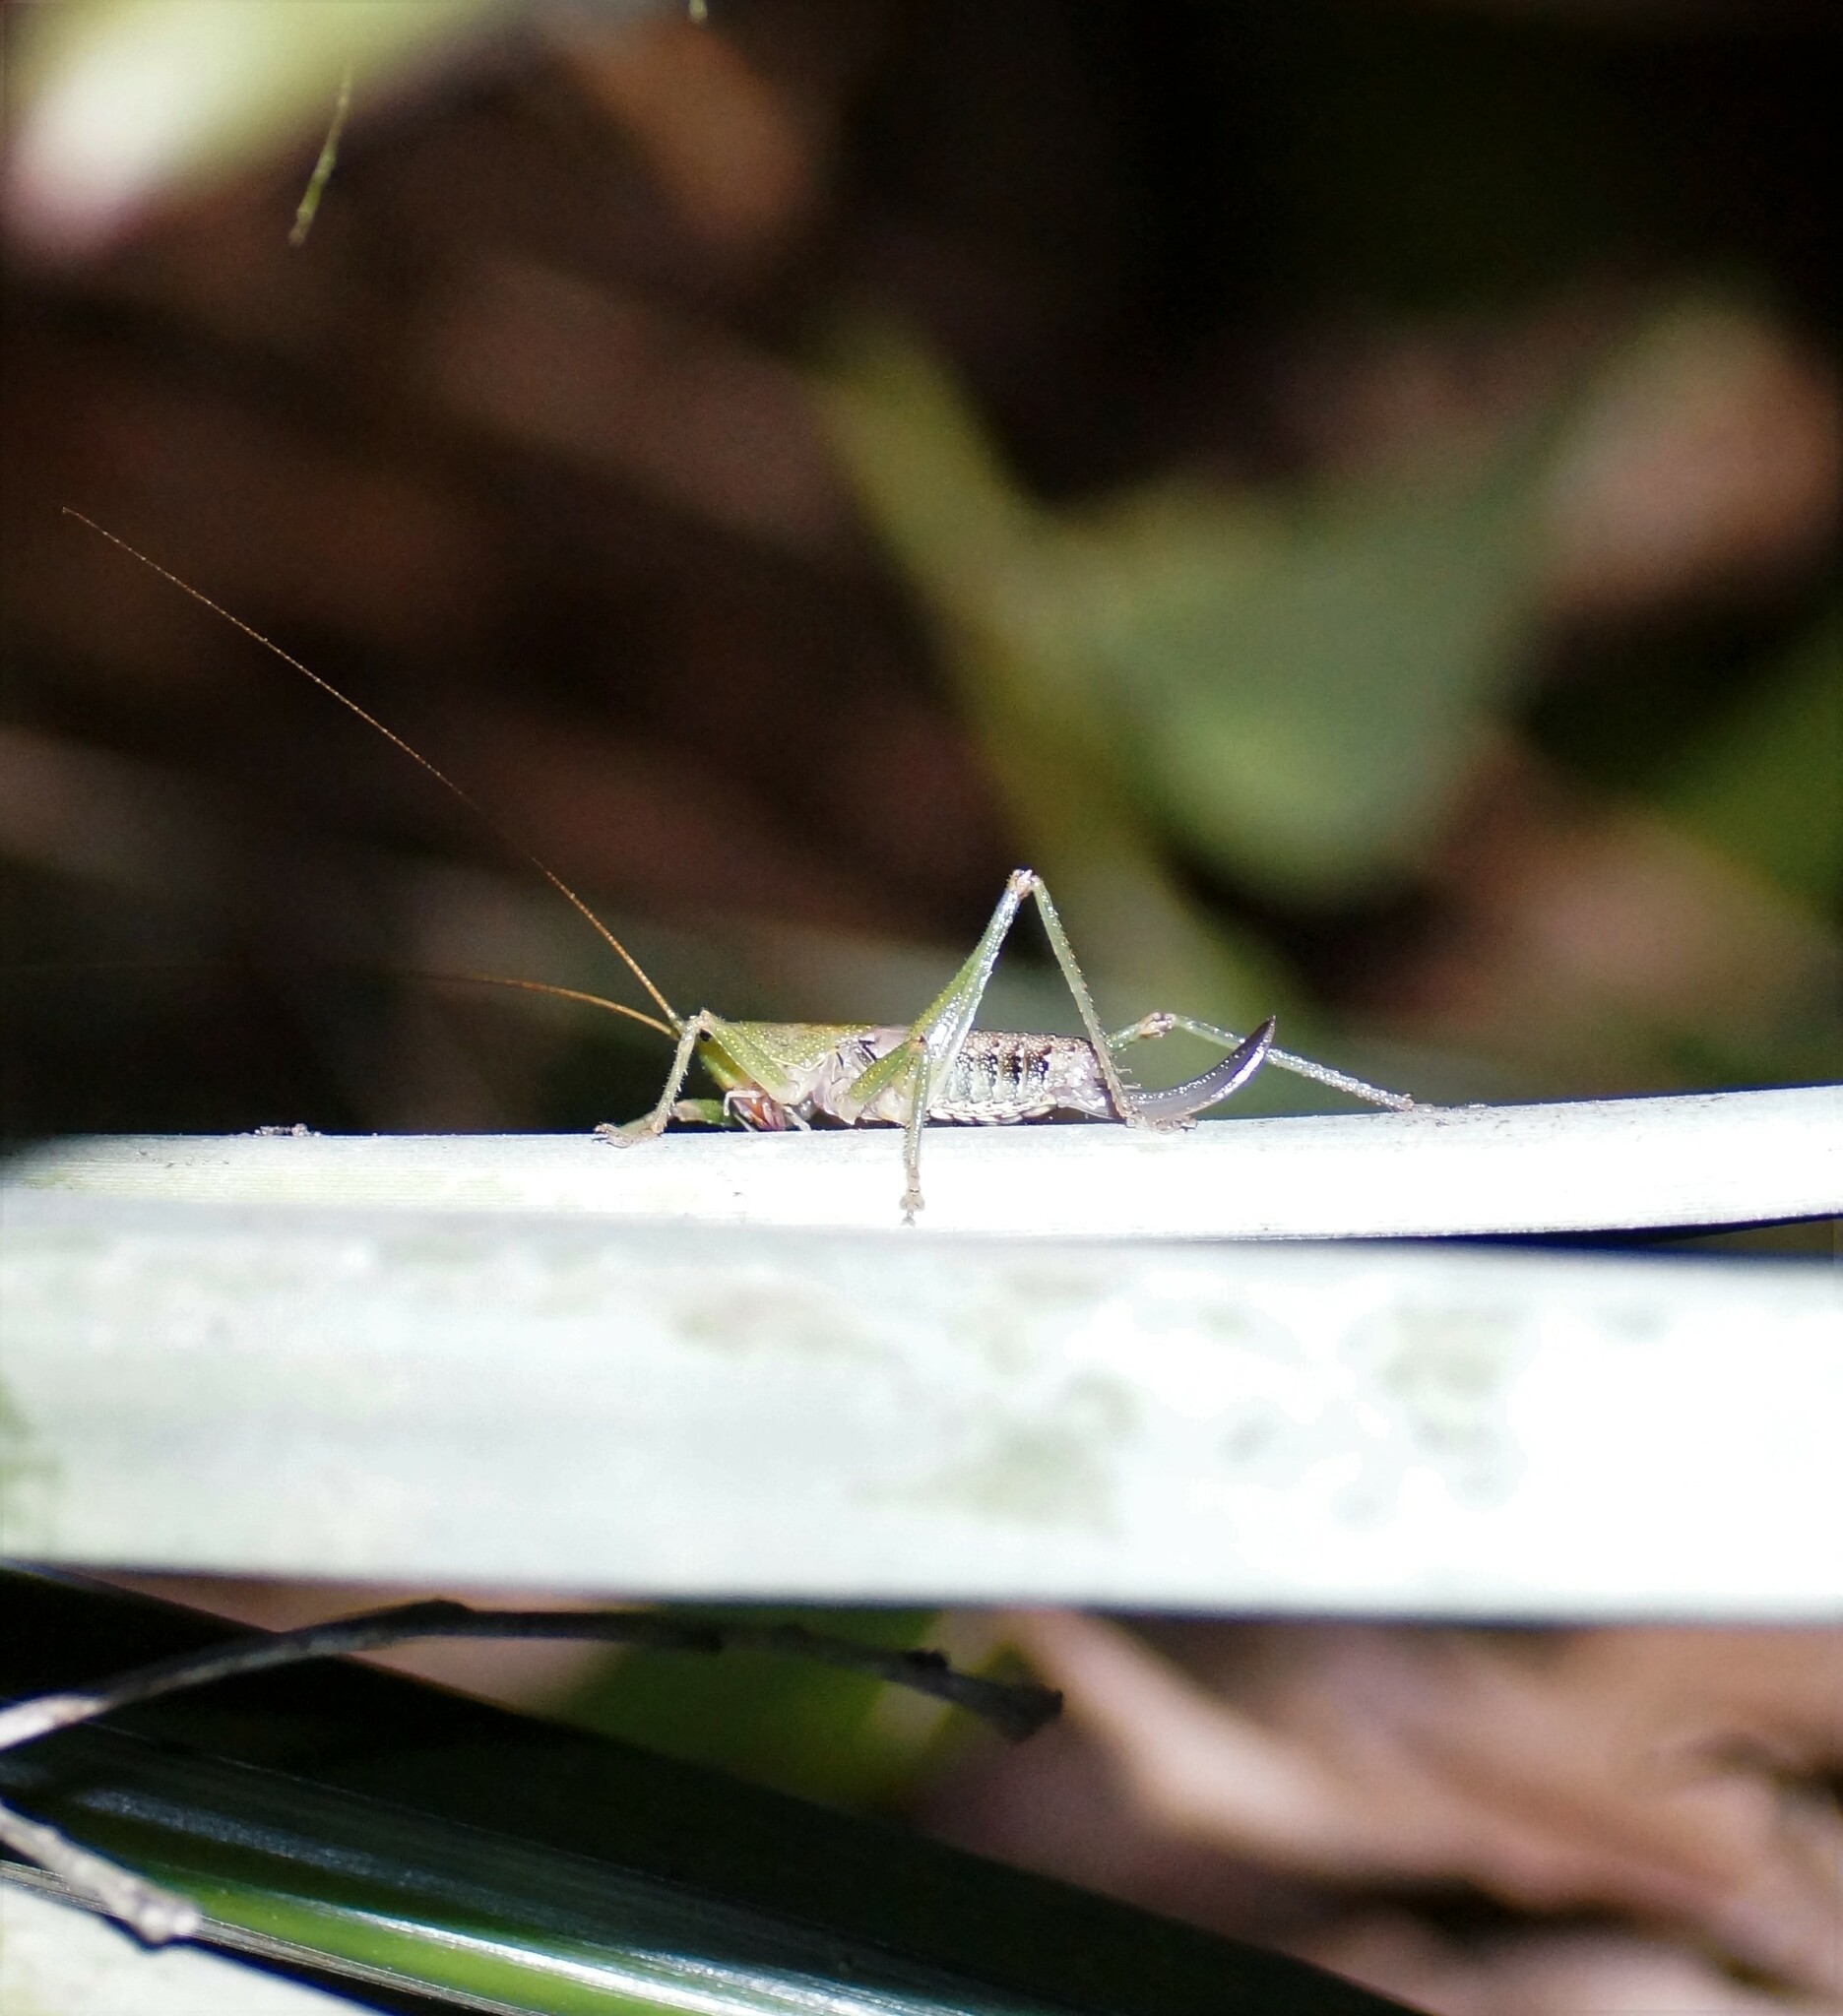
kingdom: Animalia
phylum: Arthropoda
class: Insecta
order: Orthoptera
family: Tettigoniidae
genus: Austrosalomona
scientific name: Austrosalomona destructor
